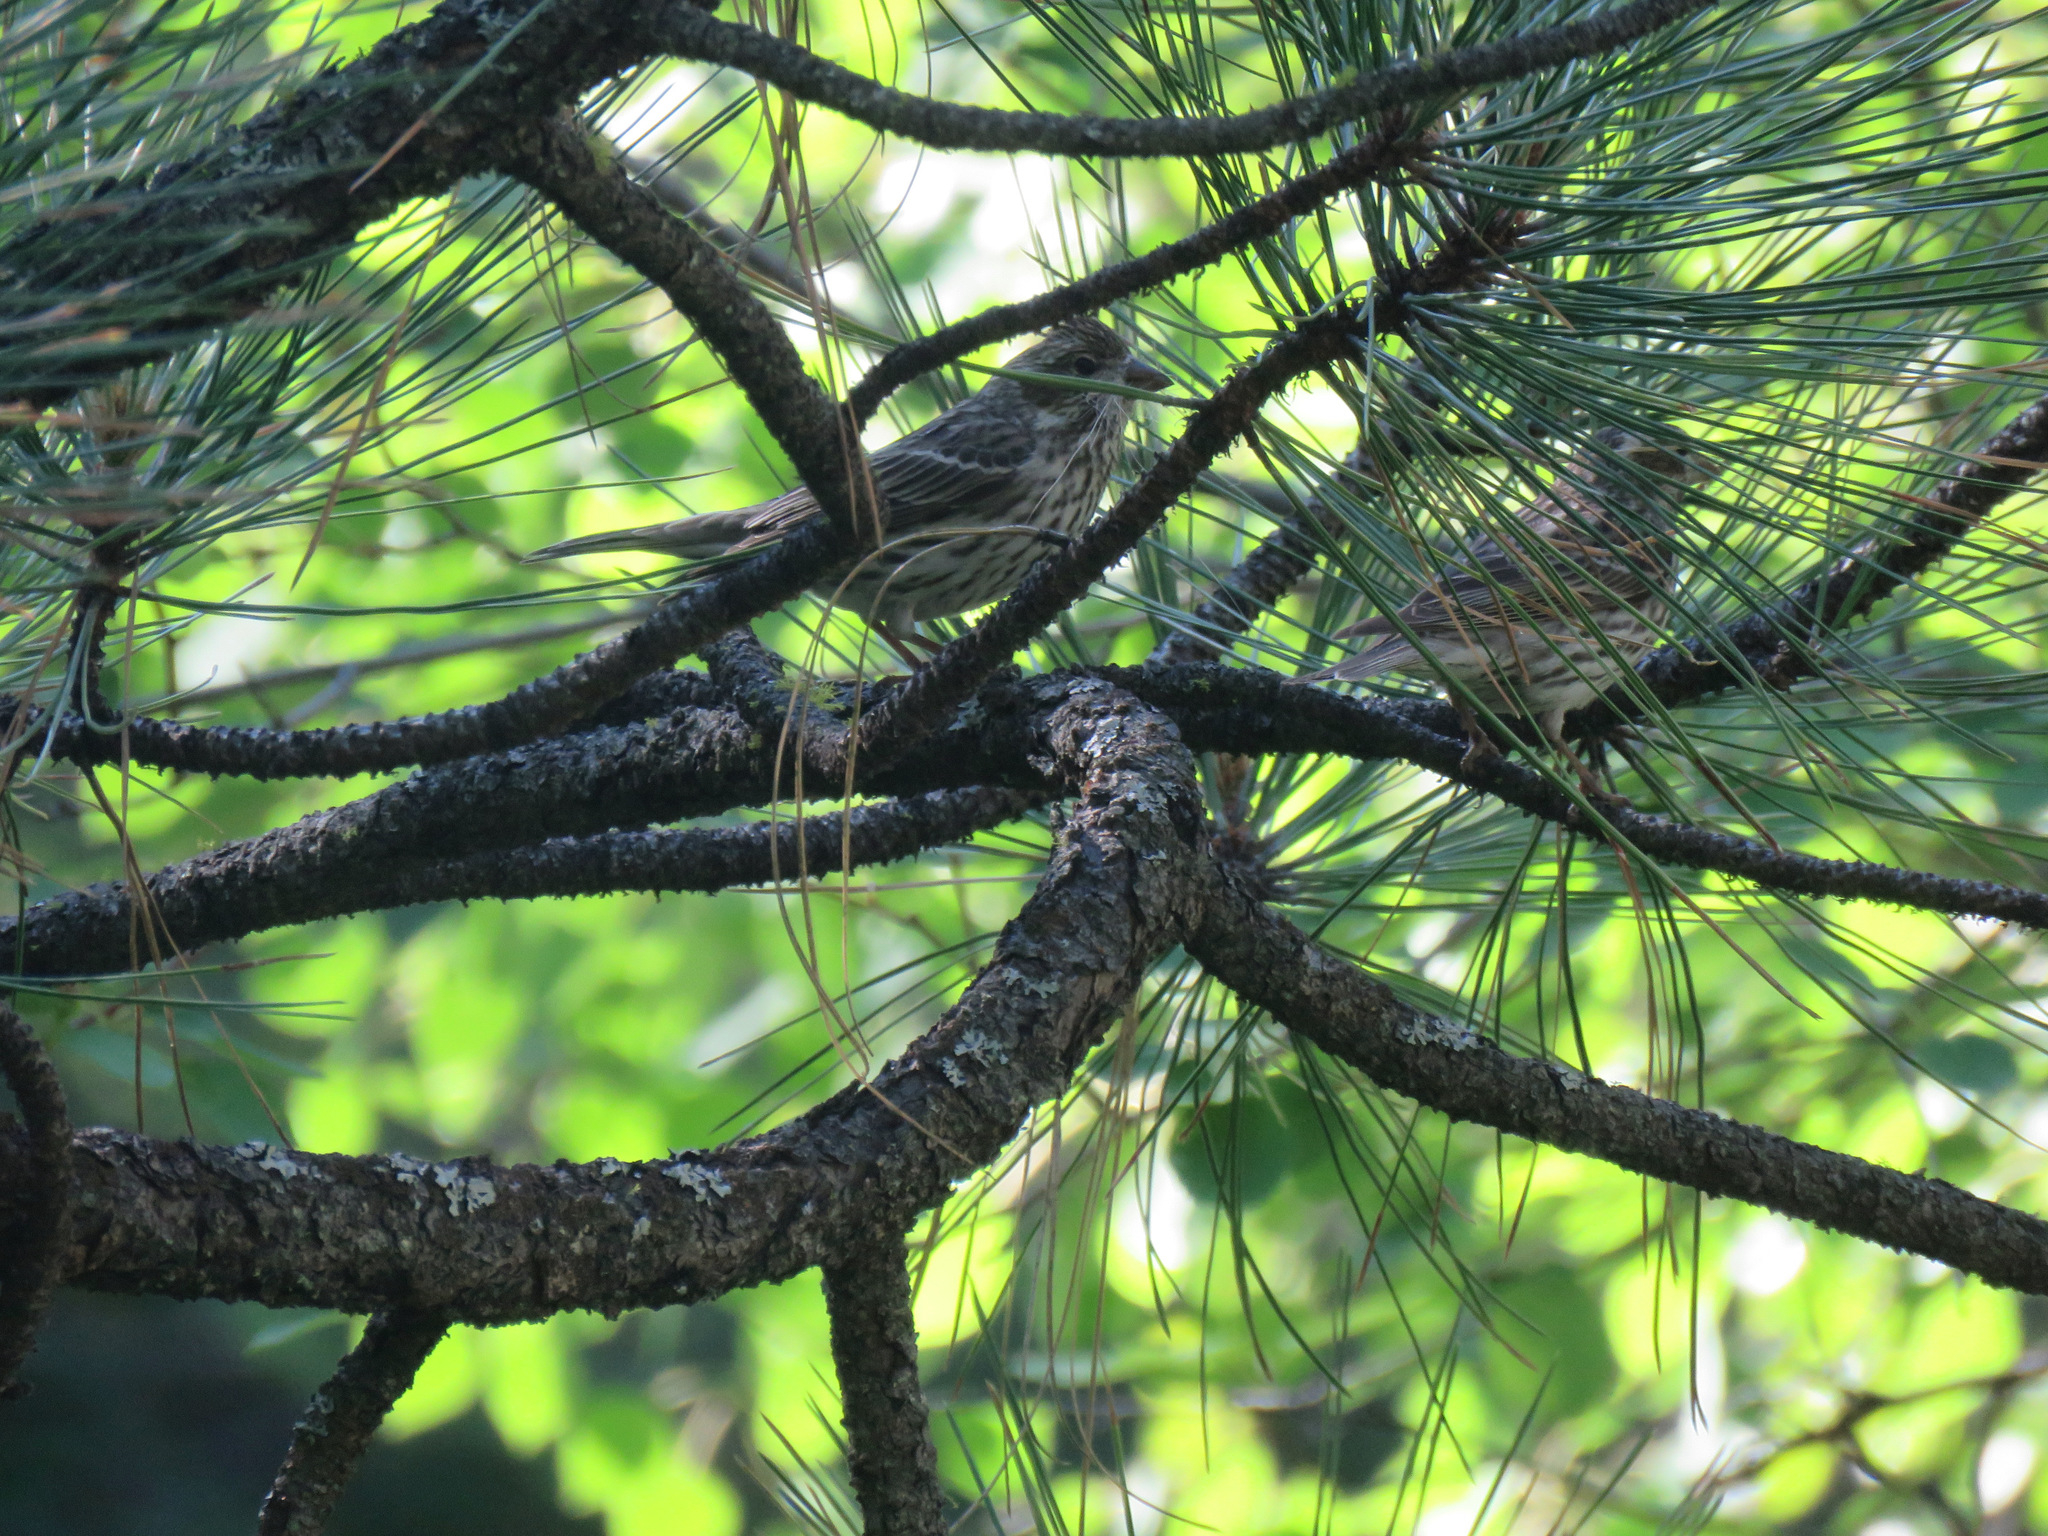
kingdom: Animalia
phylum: Chordata
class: Aves
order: Passeriformes
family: Fringillidae
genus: Haemorhous
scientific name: Haemorhous cassinii
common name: Cassin's finch
